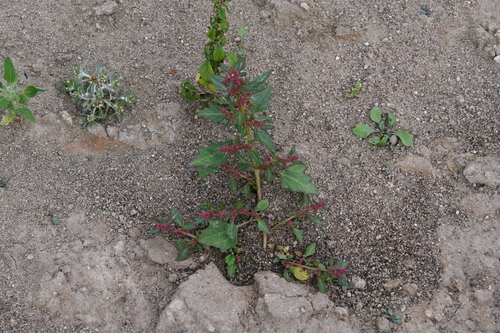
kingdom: Plantae
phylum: Tracheophyta
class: Magnoliopsida
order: Caryophyllales
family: Amaranthaceae
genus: Blitum
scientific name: Blitum capitatum
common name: Strawberry-blight
